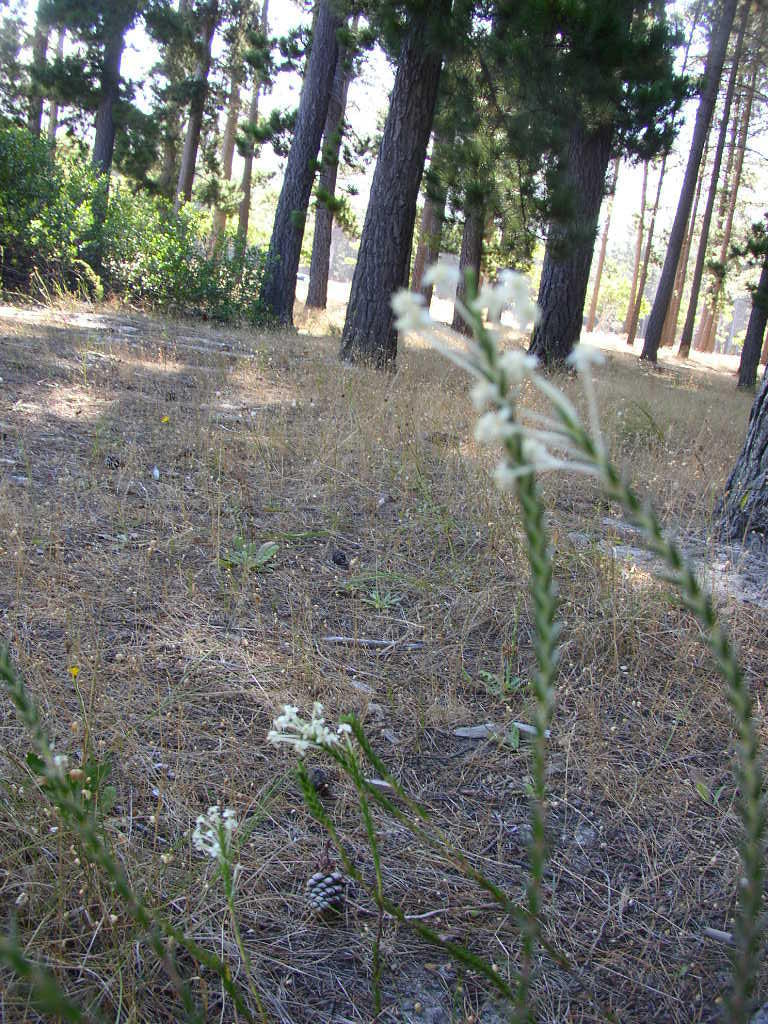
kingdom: Plantae
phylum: Tracheophyta
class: Magnoliopsida
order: Malvales
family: Thymelaeaceae
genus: Struthiola
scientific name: Struthiola striata
